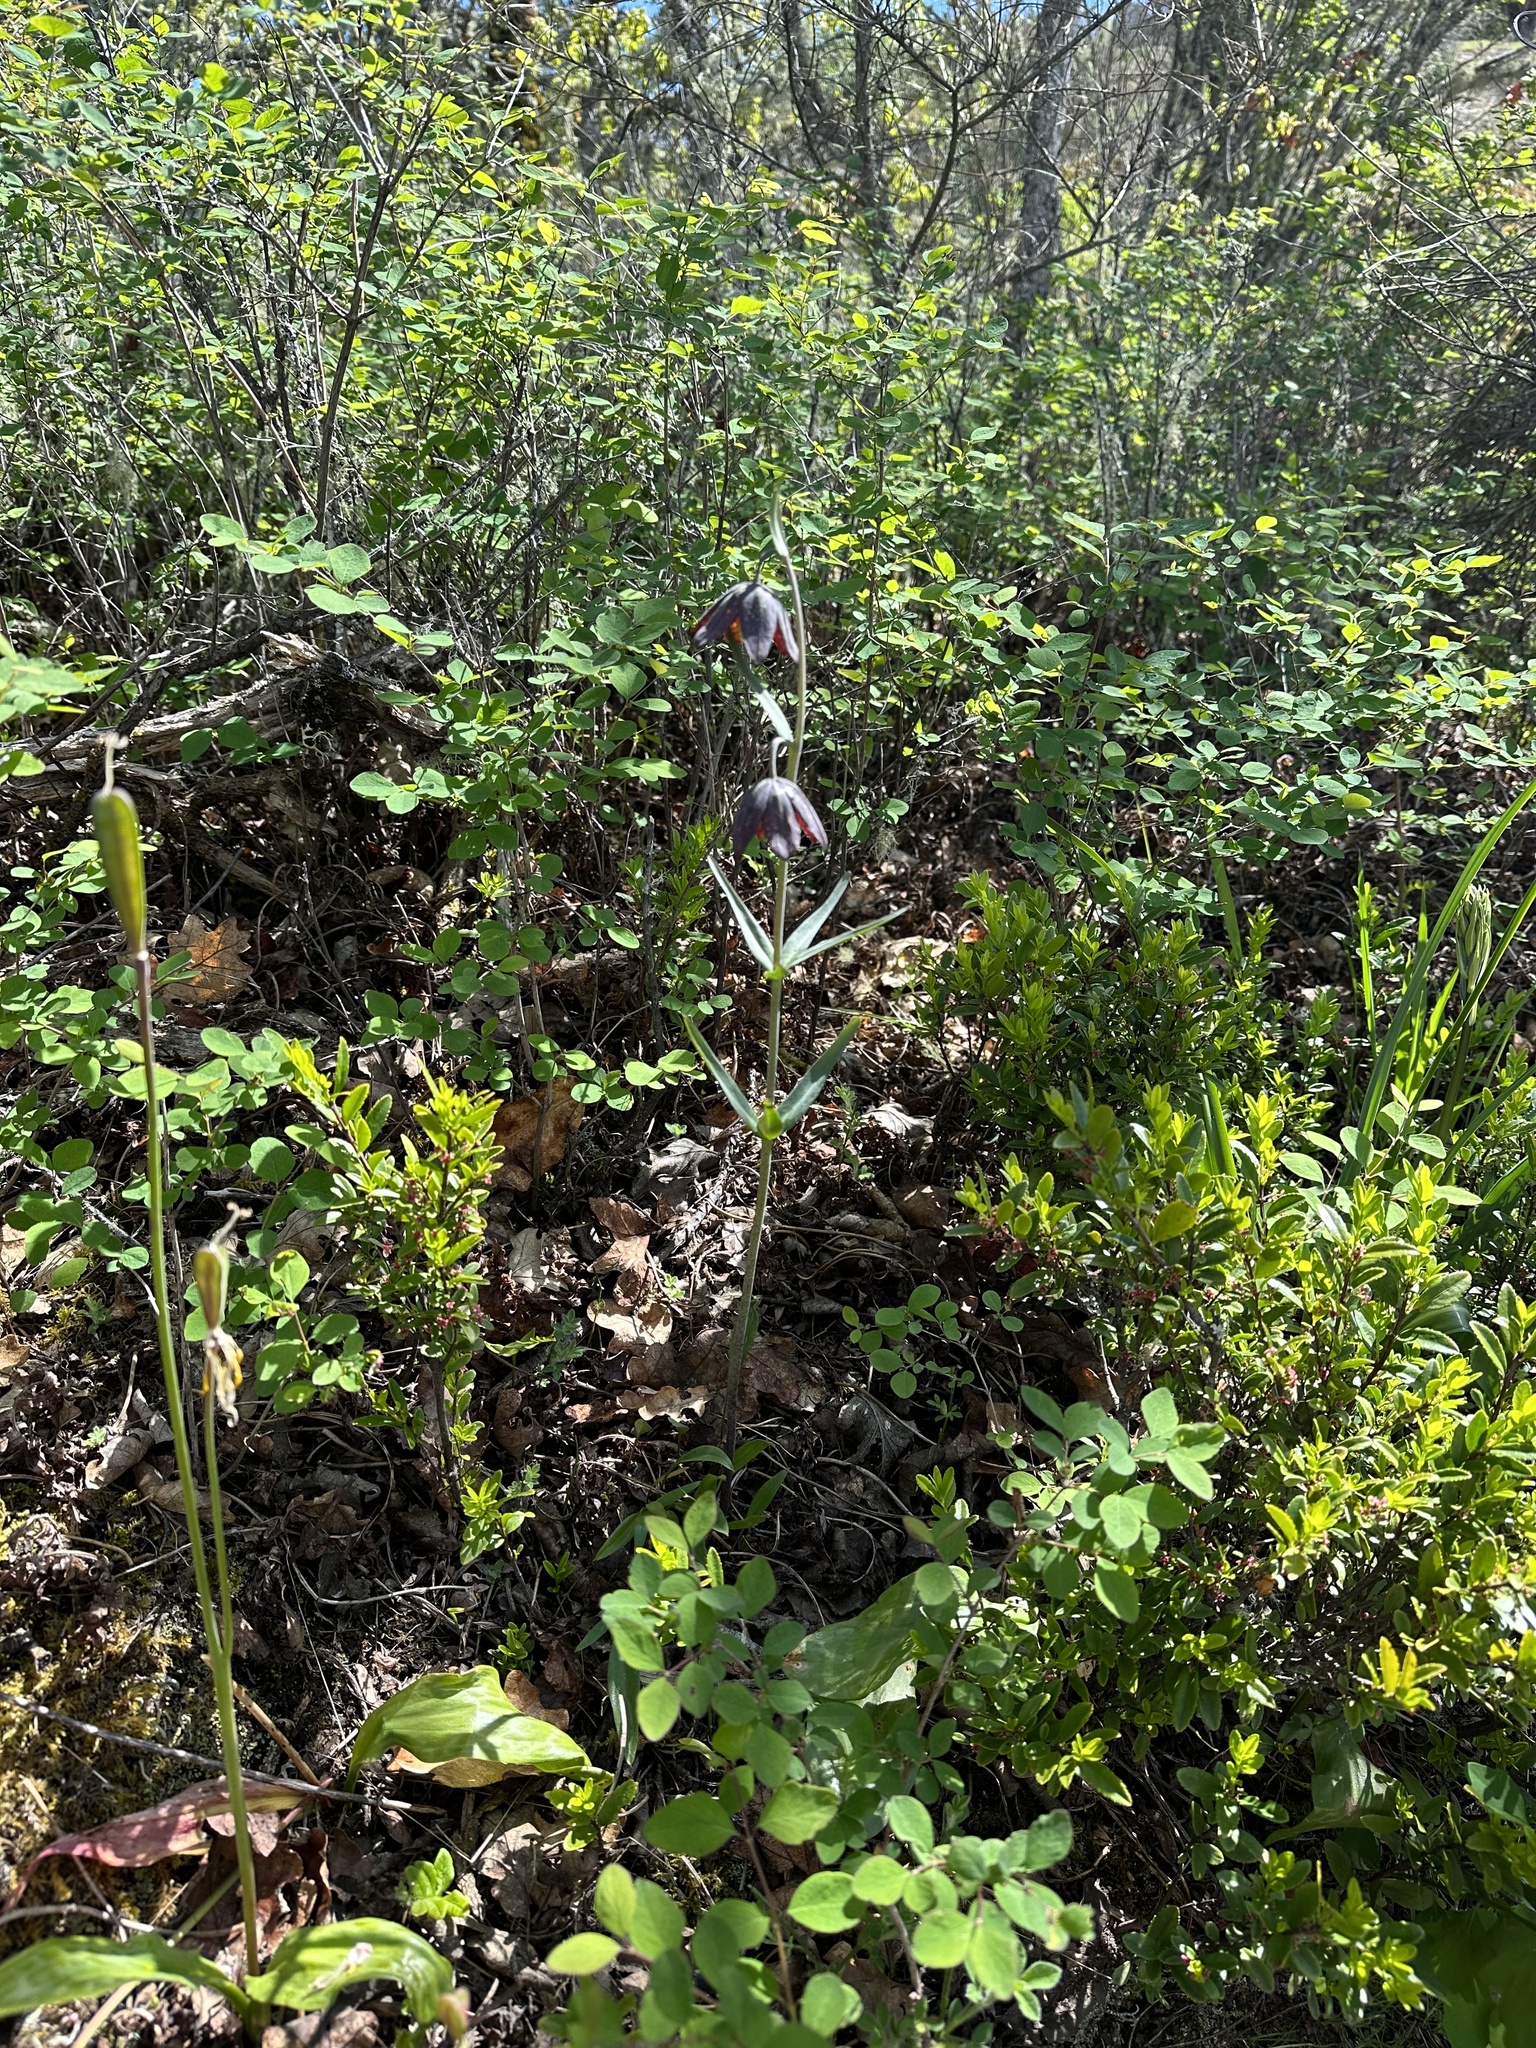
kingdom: Plantae
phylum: Tracheophyta
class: Liliopsida
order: Liliales
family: Liliaceae
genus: Fritillaria
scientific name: Fritillaria affinis
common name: Ojai fritillary
